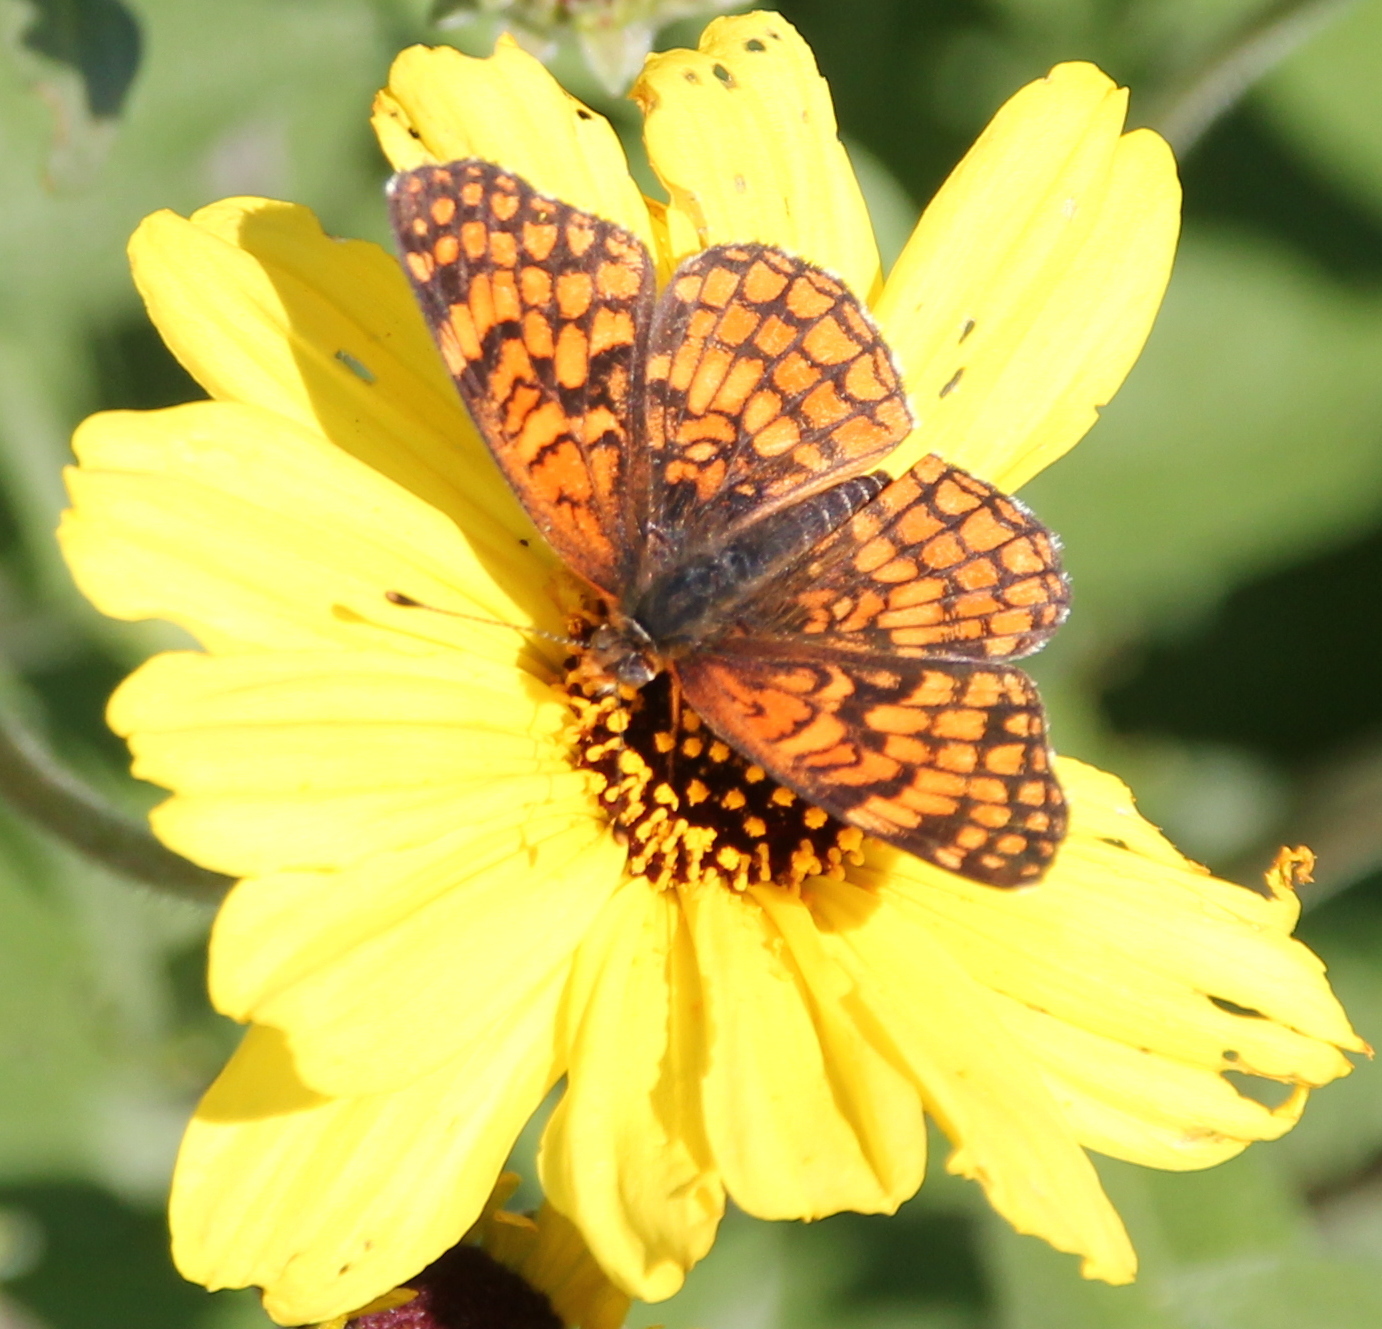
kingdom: Animalia
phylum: Arthropoda
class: Insecta
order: Lepidoptera
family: Nymphalidae
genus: Chlosyne
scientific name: Chlosyne gabbii
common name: Gabb's checkerspot
